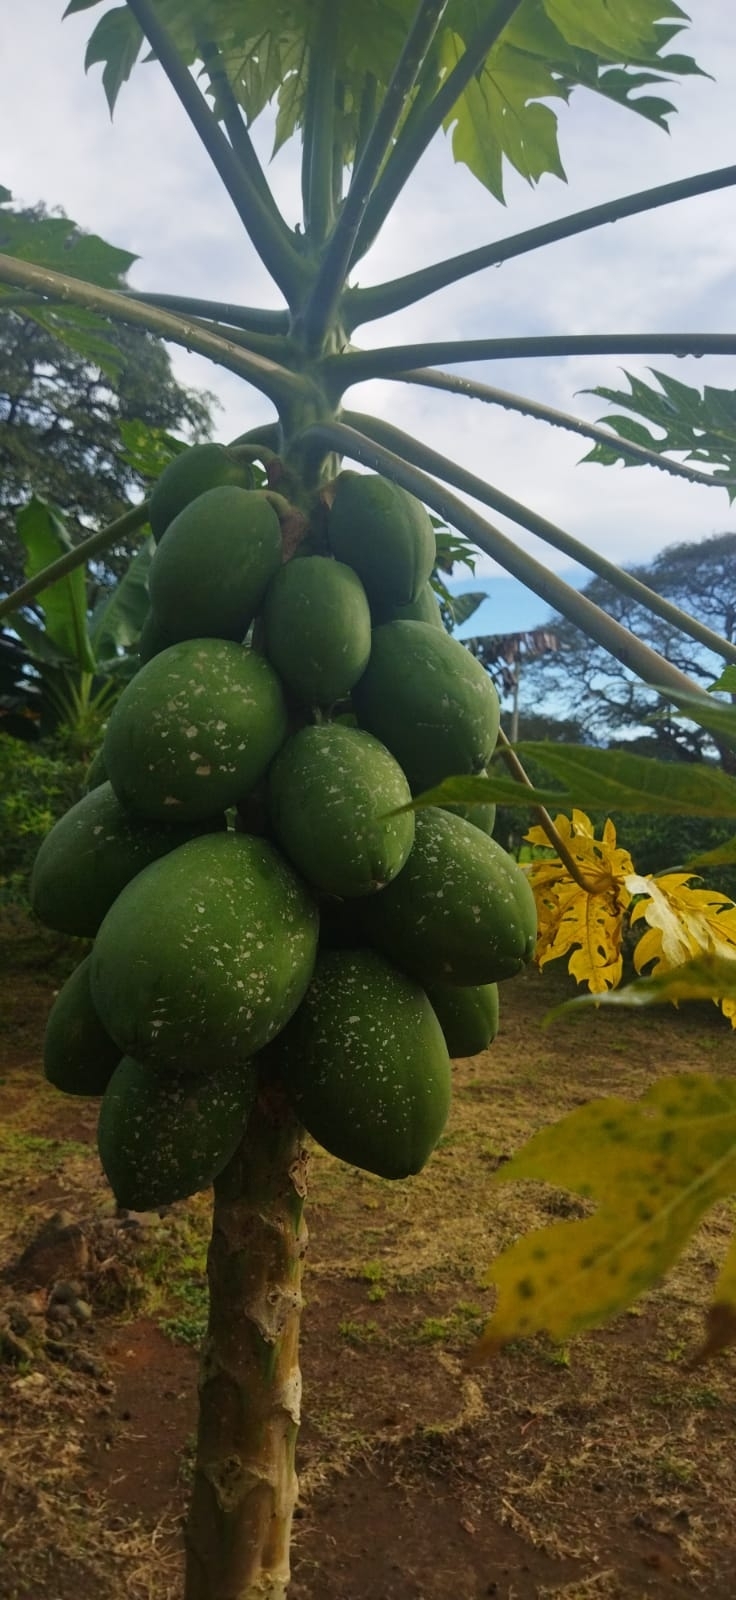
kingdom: Plantae
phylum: Tracheophyta
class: Magnoliopsida
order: Brassicales
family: Caricaceae
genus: Carica
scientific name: Carica papaya
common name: Papaya
